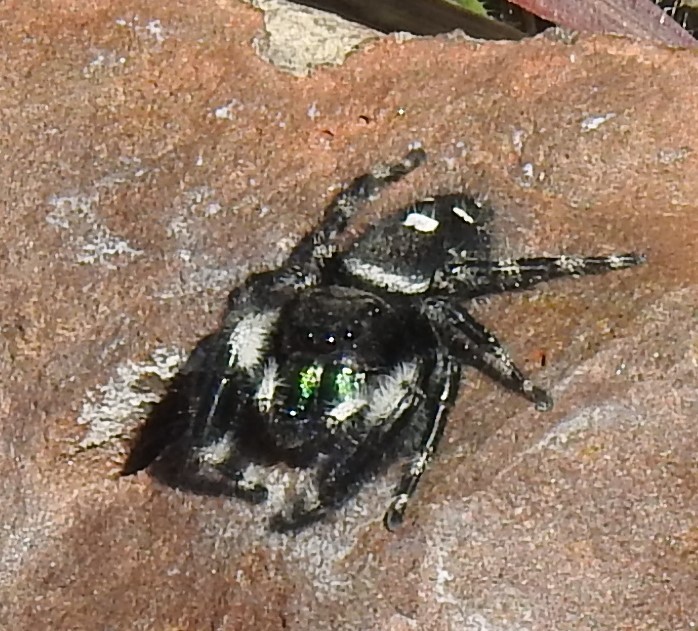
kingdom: Animalia
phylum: Arthropoda
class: Arachnida
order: Araneae
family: Salticidae
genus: Phidippus
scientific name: Phidippus audax
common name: Bold jumper
